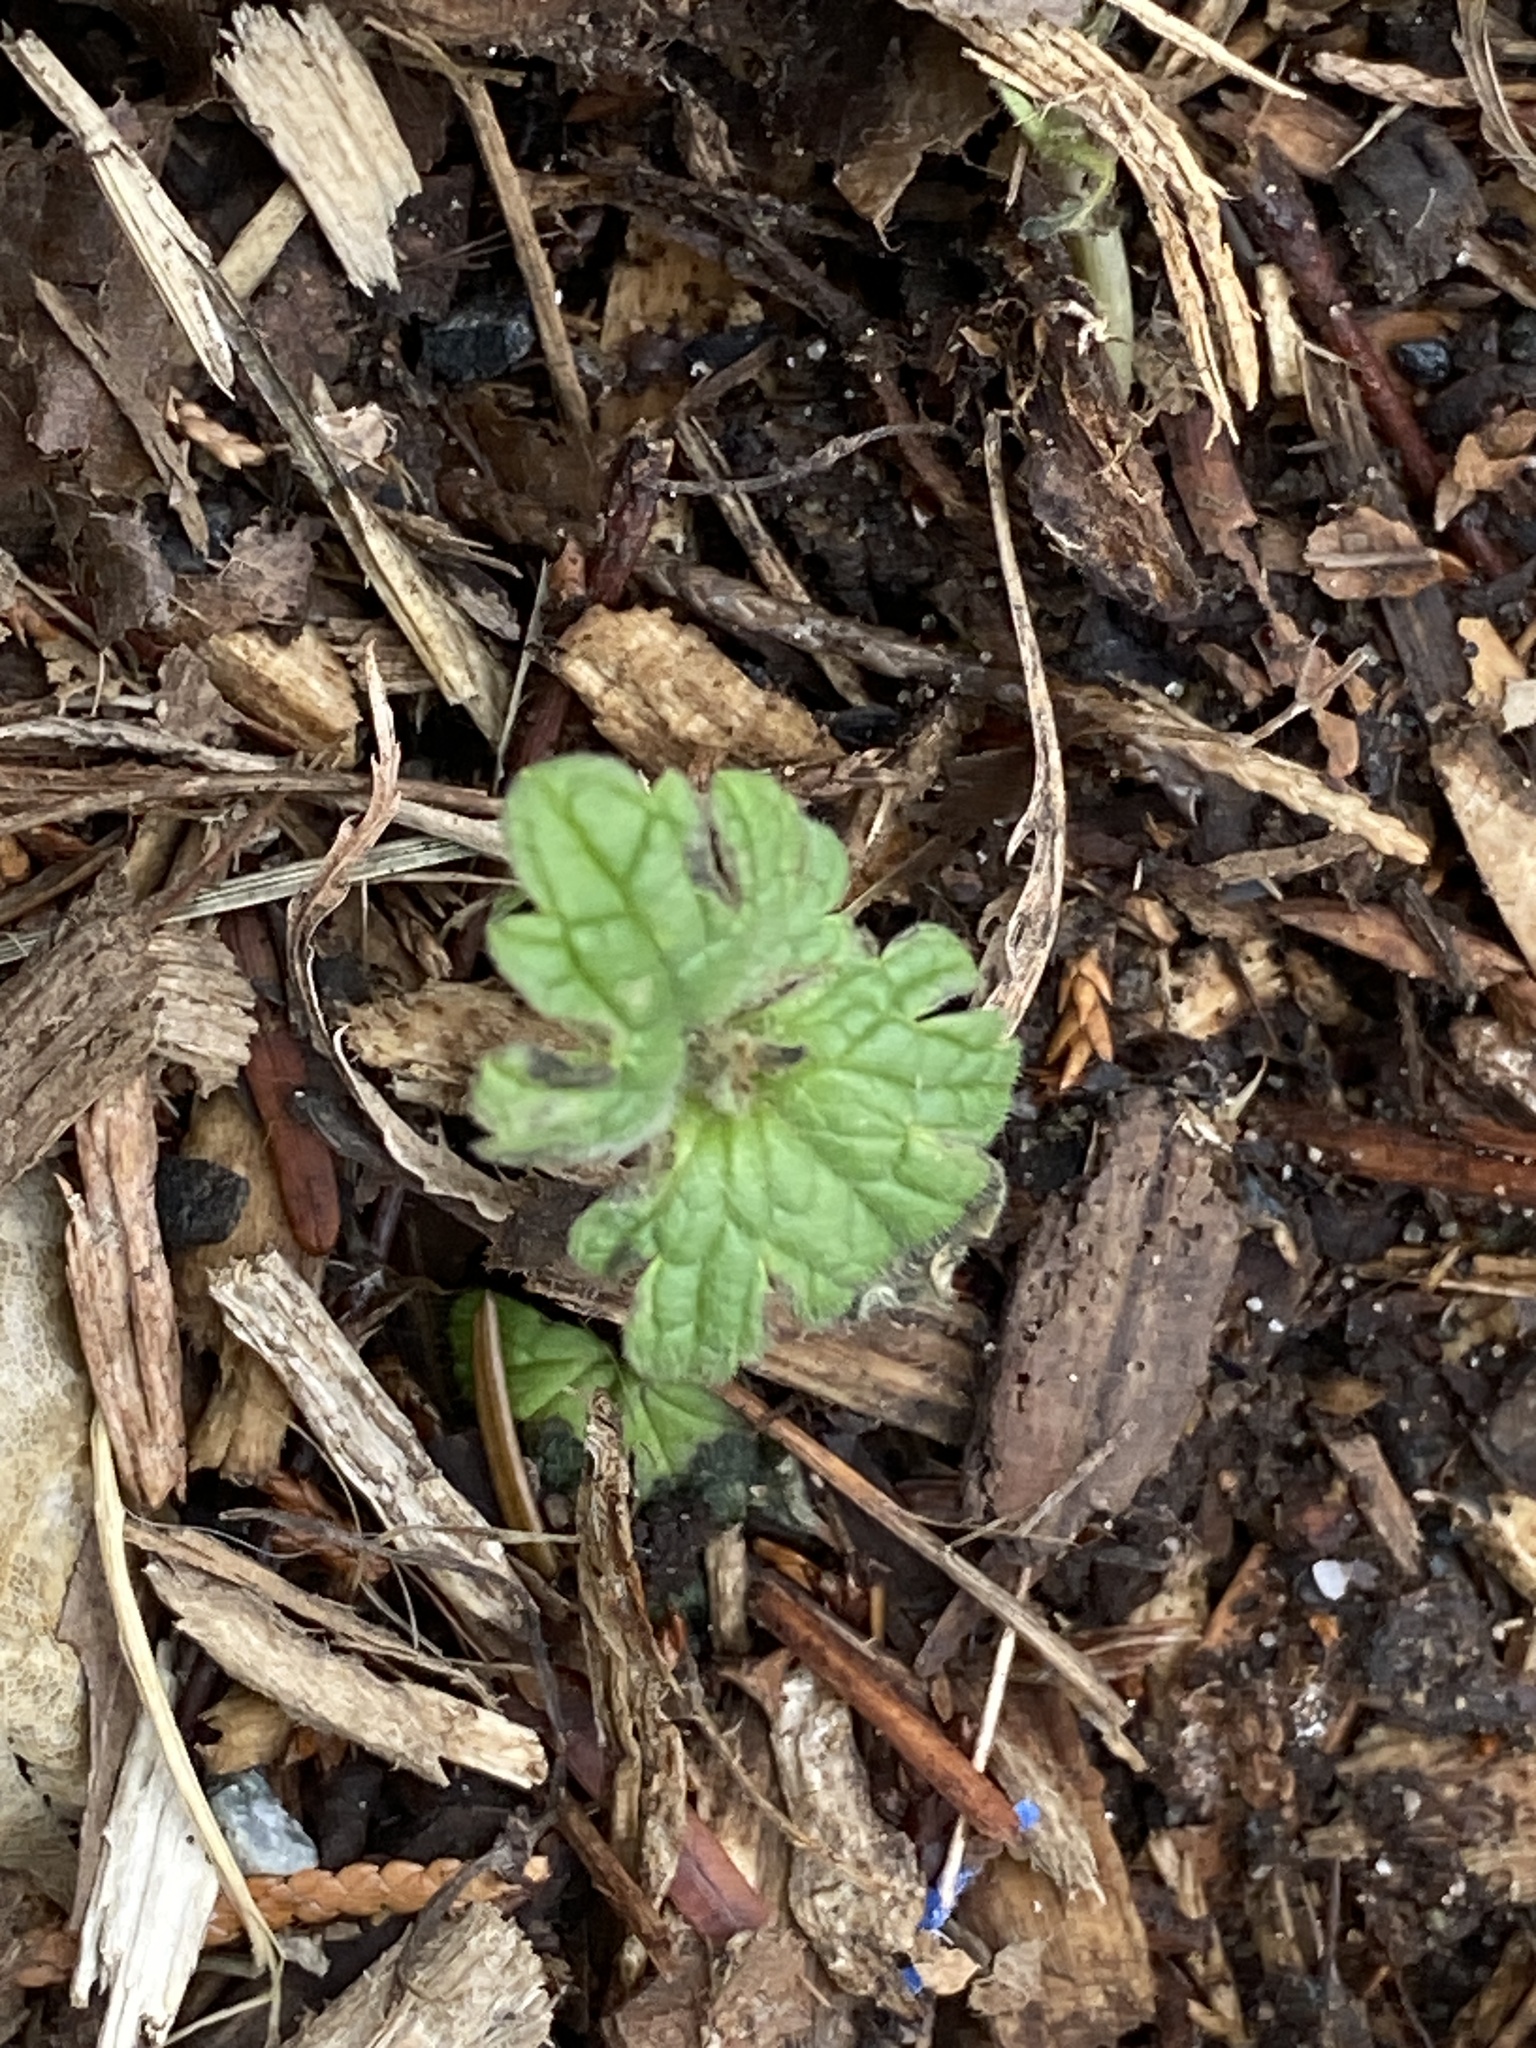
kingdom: Plantae
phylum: Tracheophyta
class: Magnoliopsida
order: Lamiales
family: Lamiaceae
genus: Lamium
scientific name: Lamium amplexicaule
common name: Henbit dead-nettle
